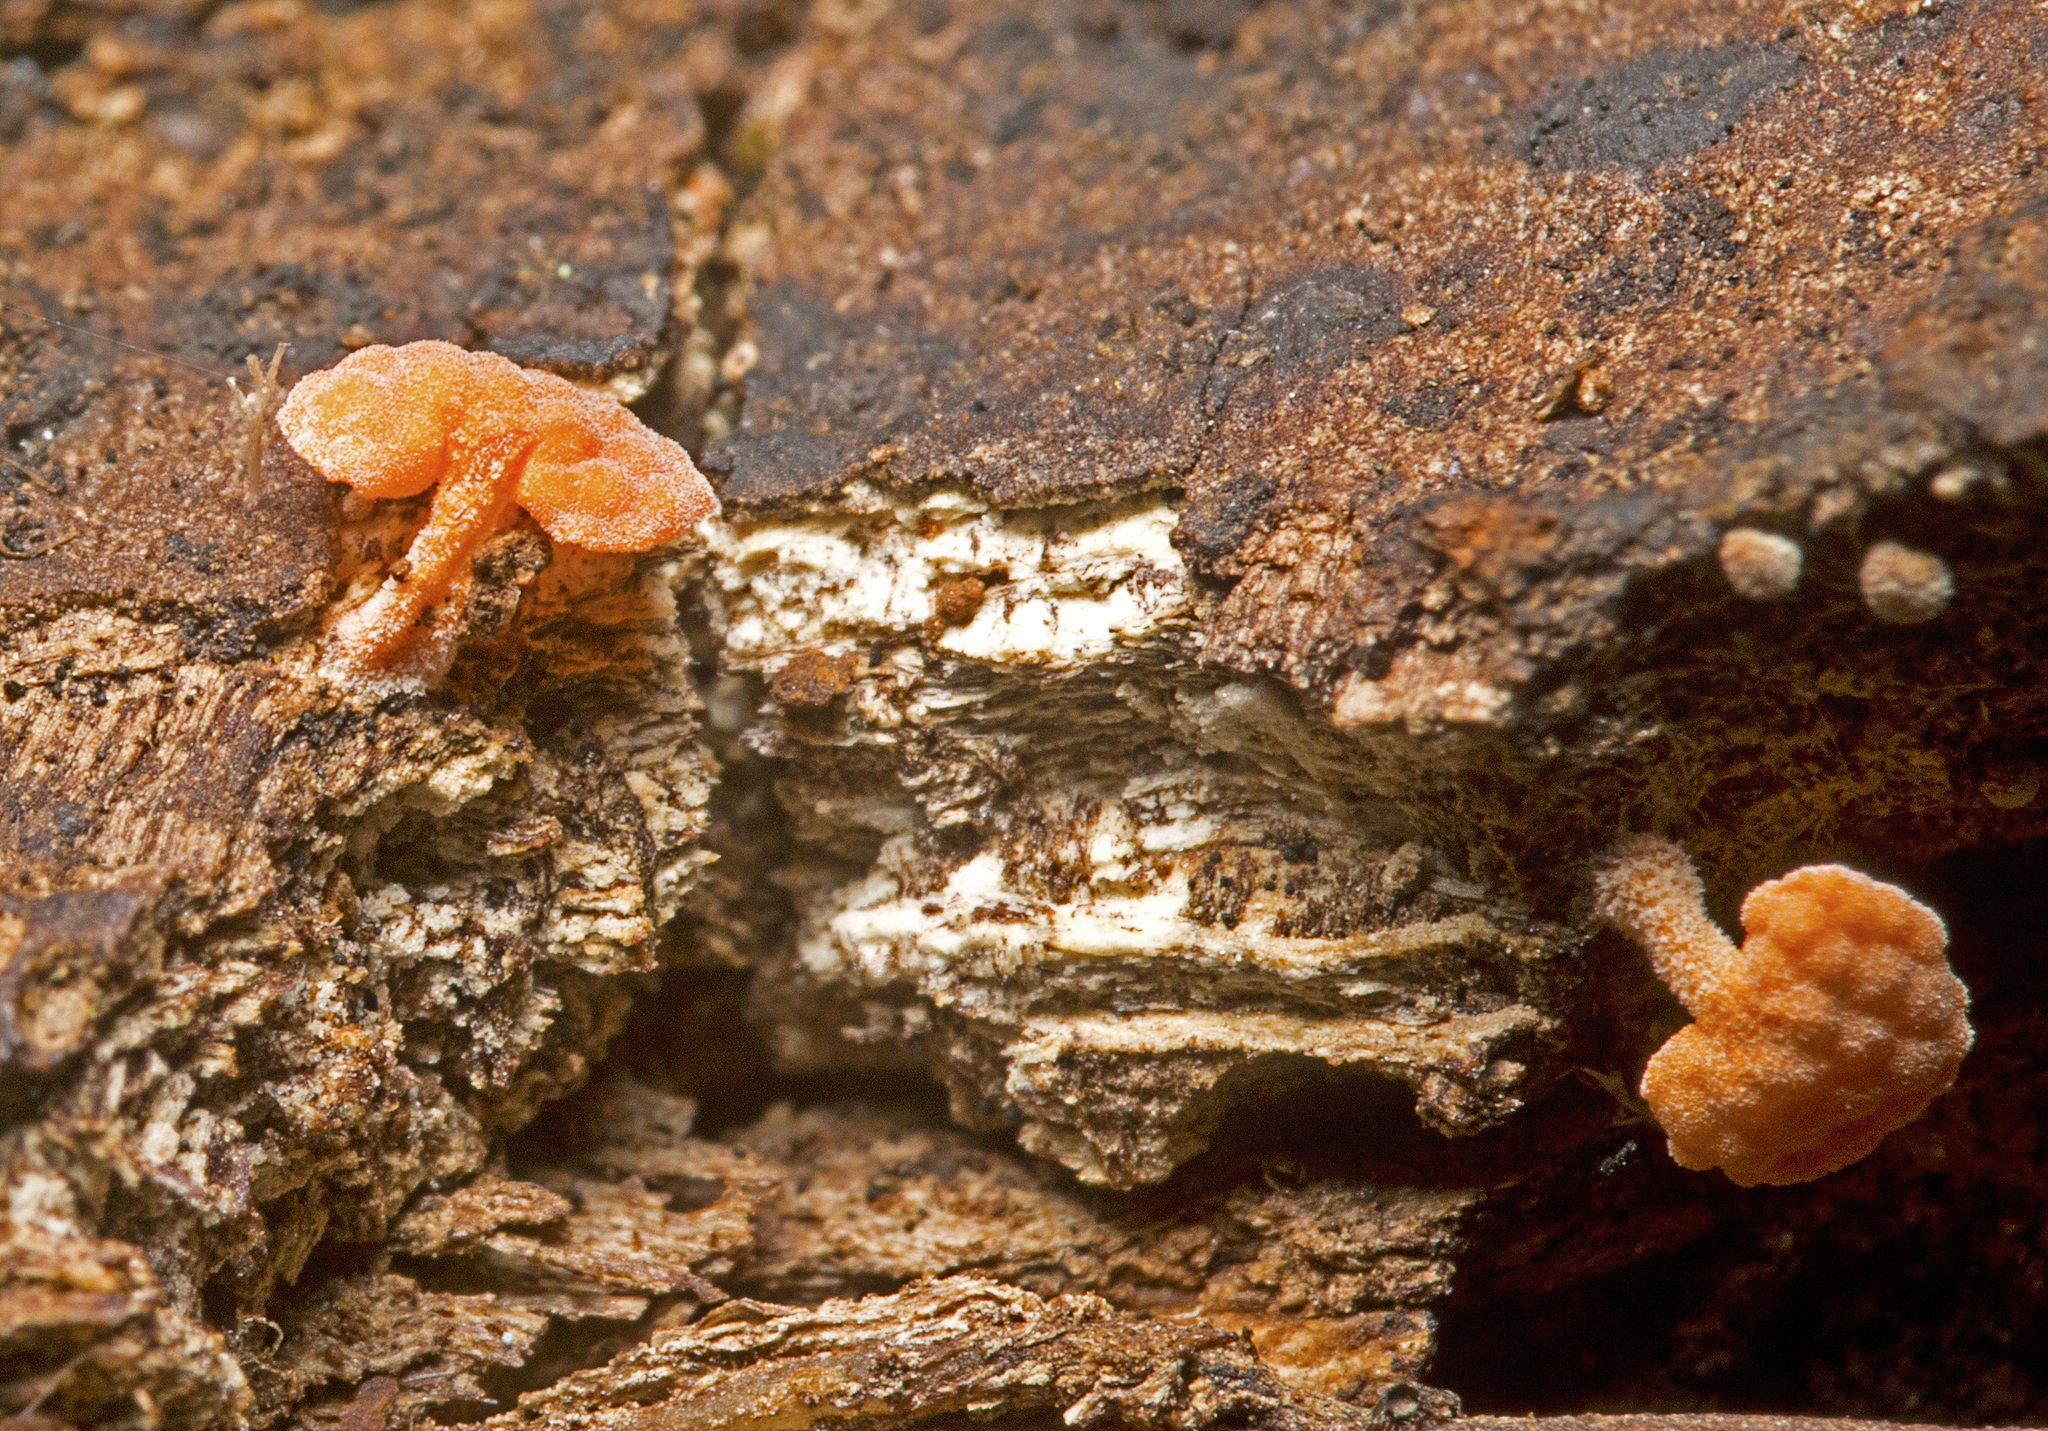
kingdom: Fungi
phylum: Basidiomycota
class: Agaricomycetes
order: Agaricales
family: Mycenaceae
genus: Favolaschia
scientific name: Favolaschia claudopus
